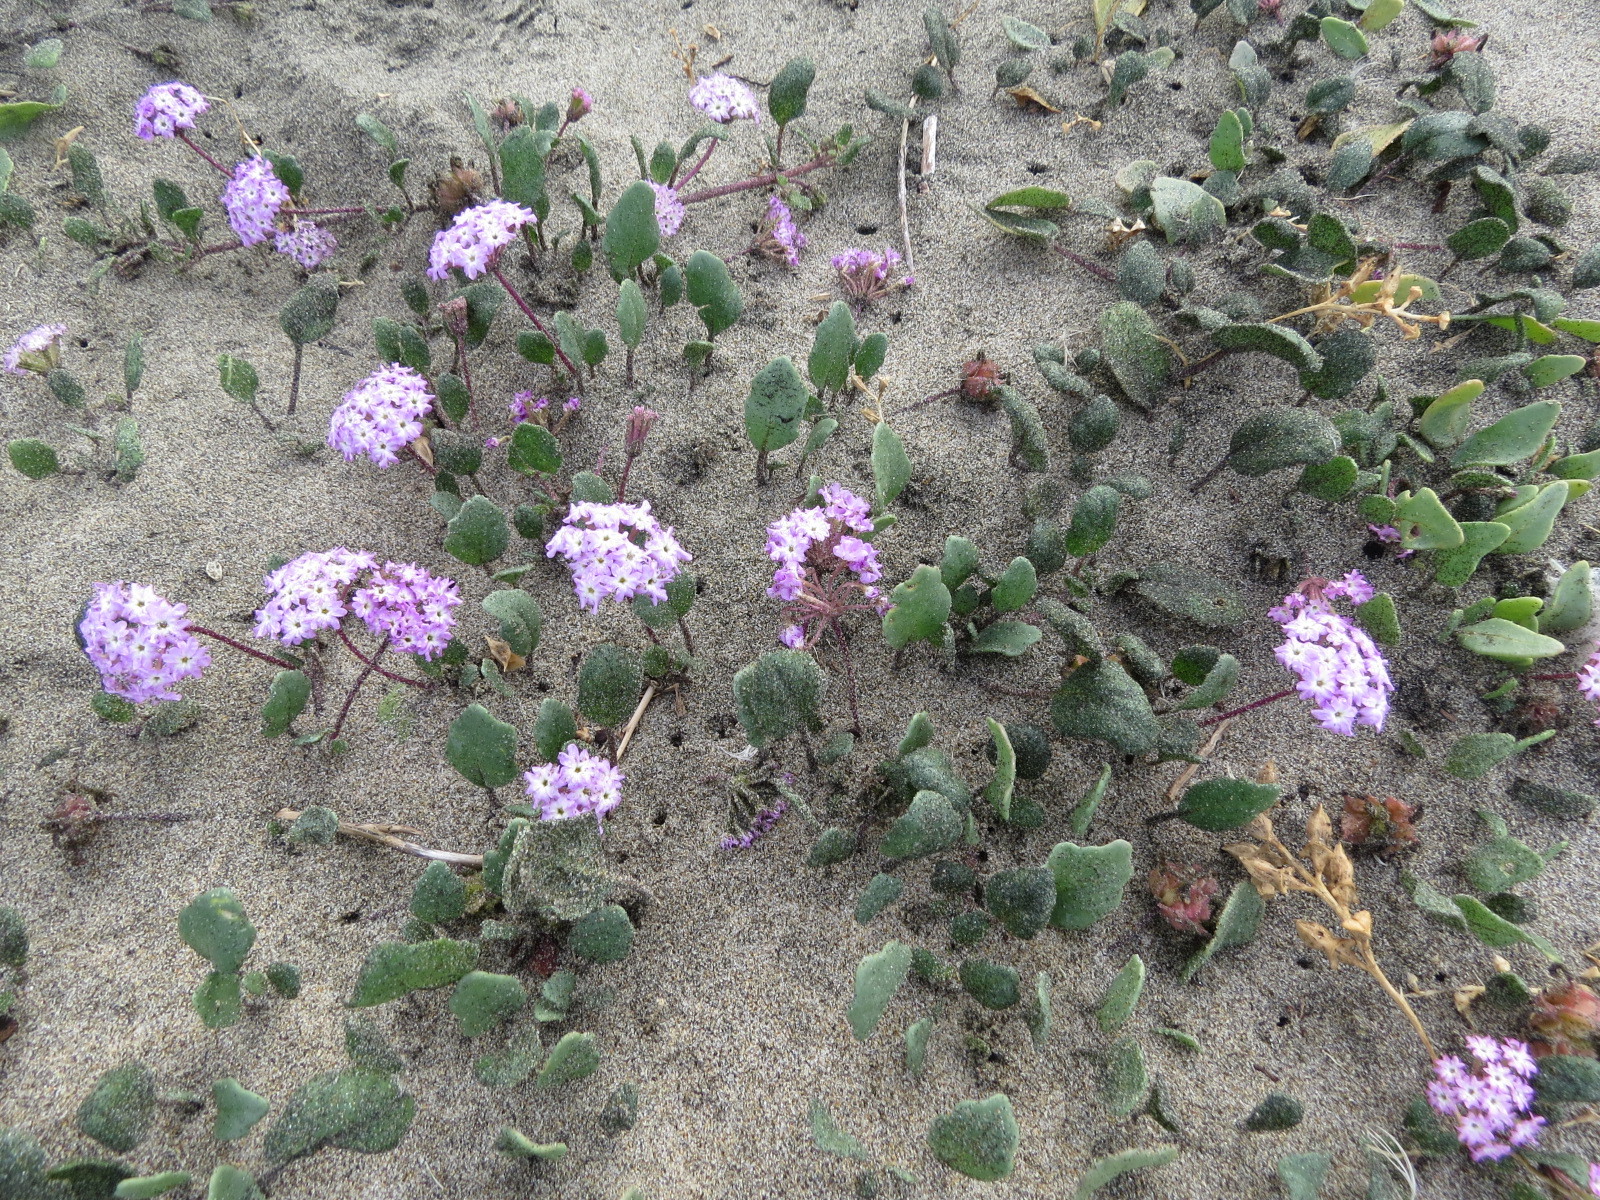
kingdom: Plantae
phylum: Tracheophyta
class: Magnoliopsida
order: Caryophyllales
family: Nyctaginaceae
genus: Abronia
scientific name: Abronia umbellata
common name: Sand-verbena
